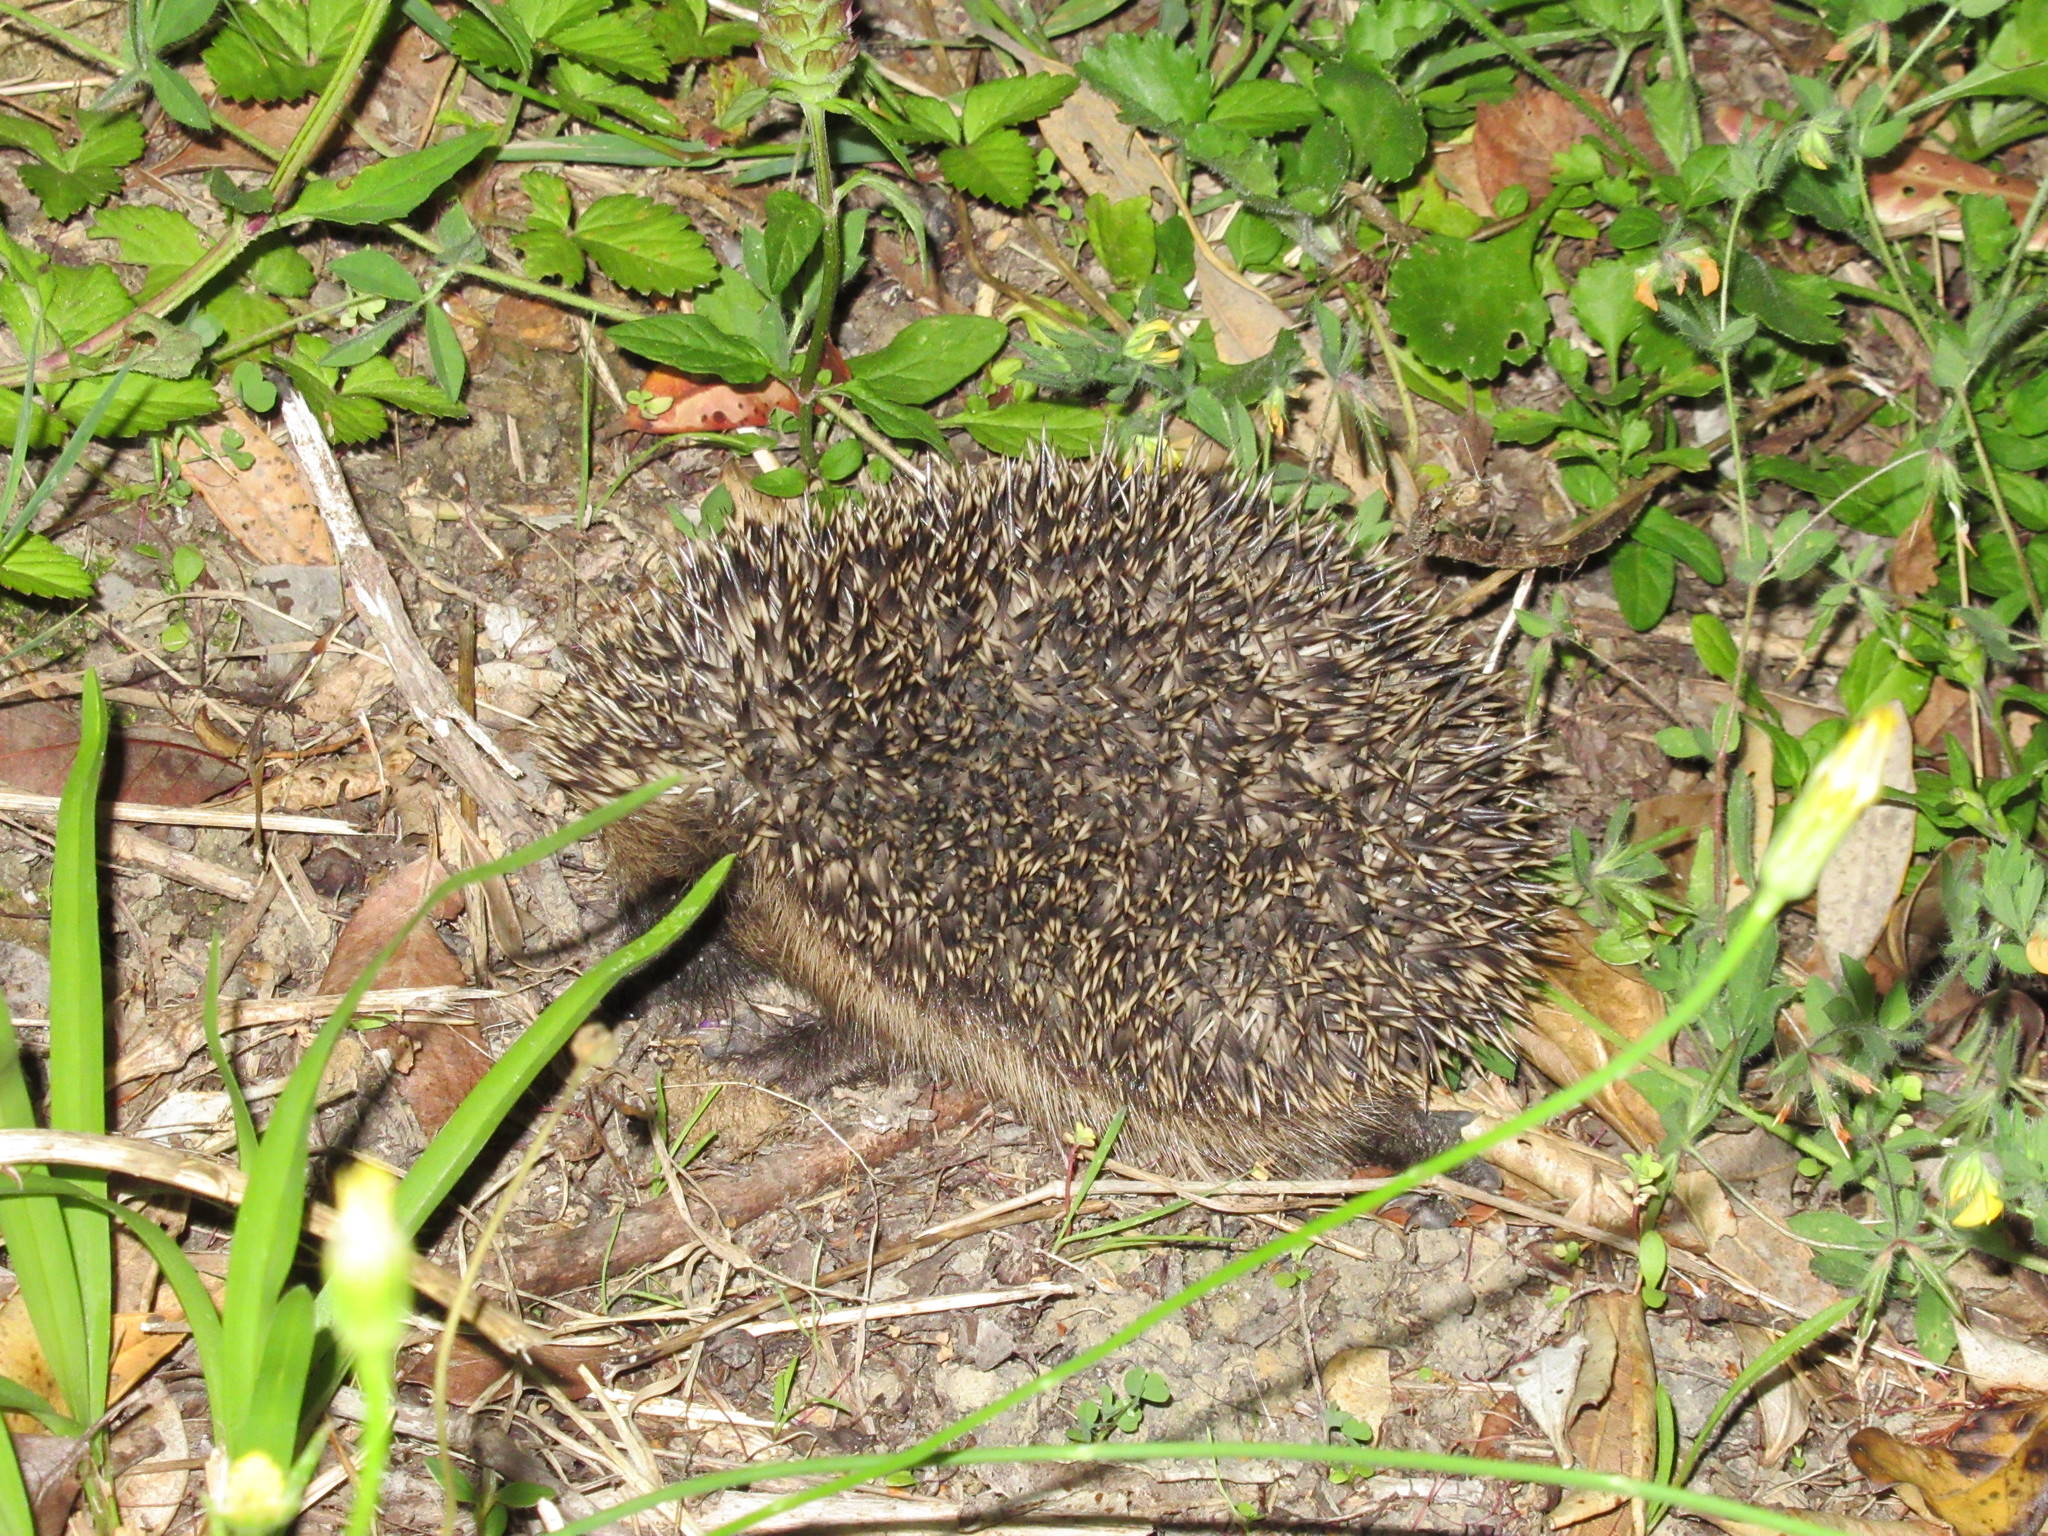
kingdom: Animalia
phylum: Chordata
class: Mammalia
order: Erinaceomorpha
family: Erinaceidae
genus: Erinaceus
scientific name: Erinaceus europaeus
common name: West european hedgehog
